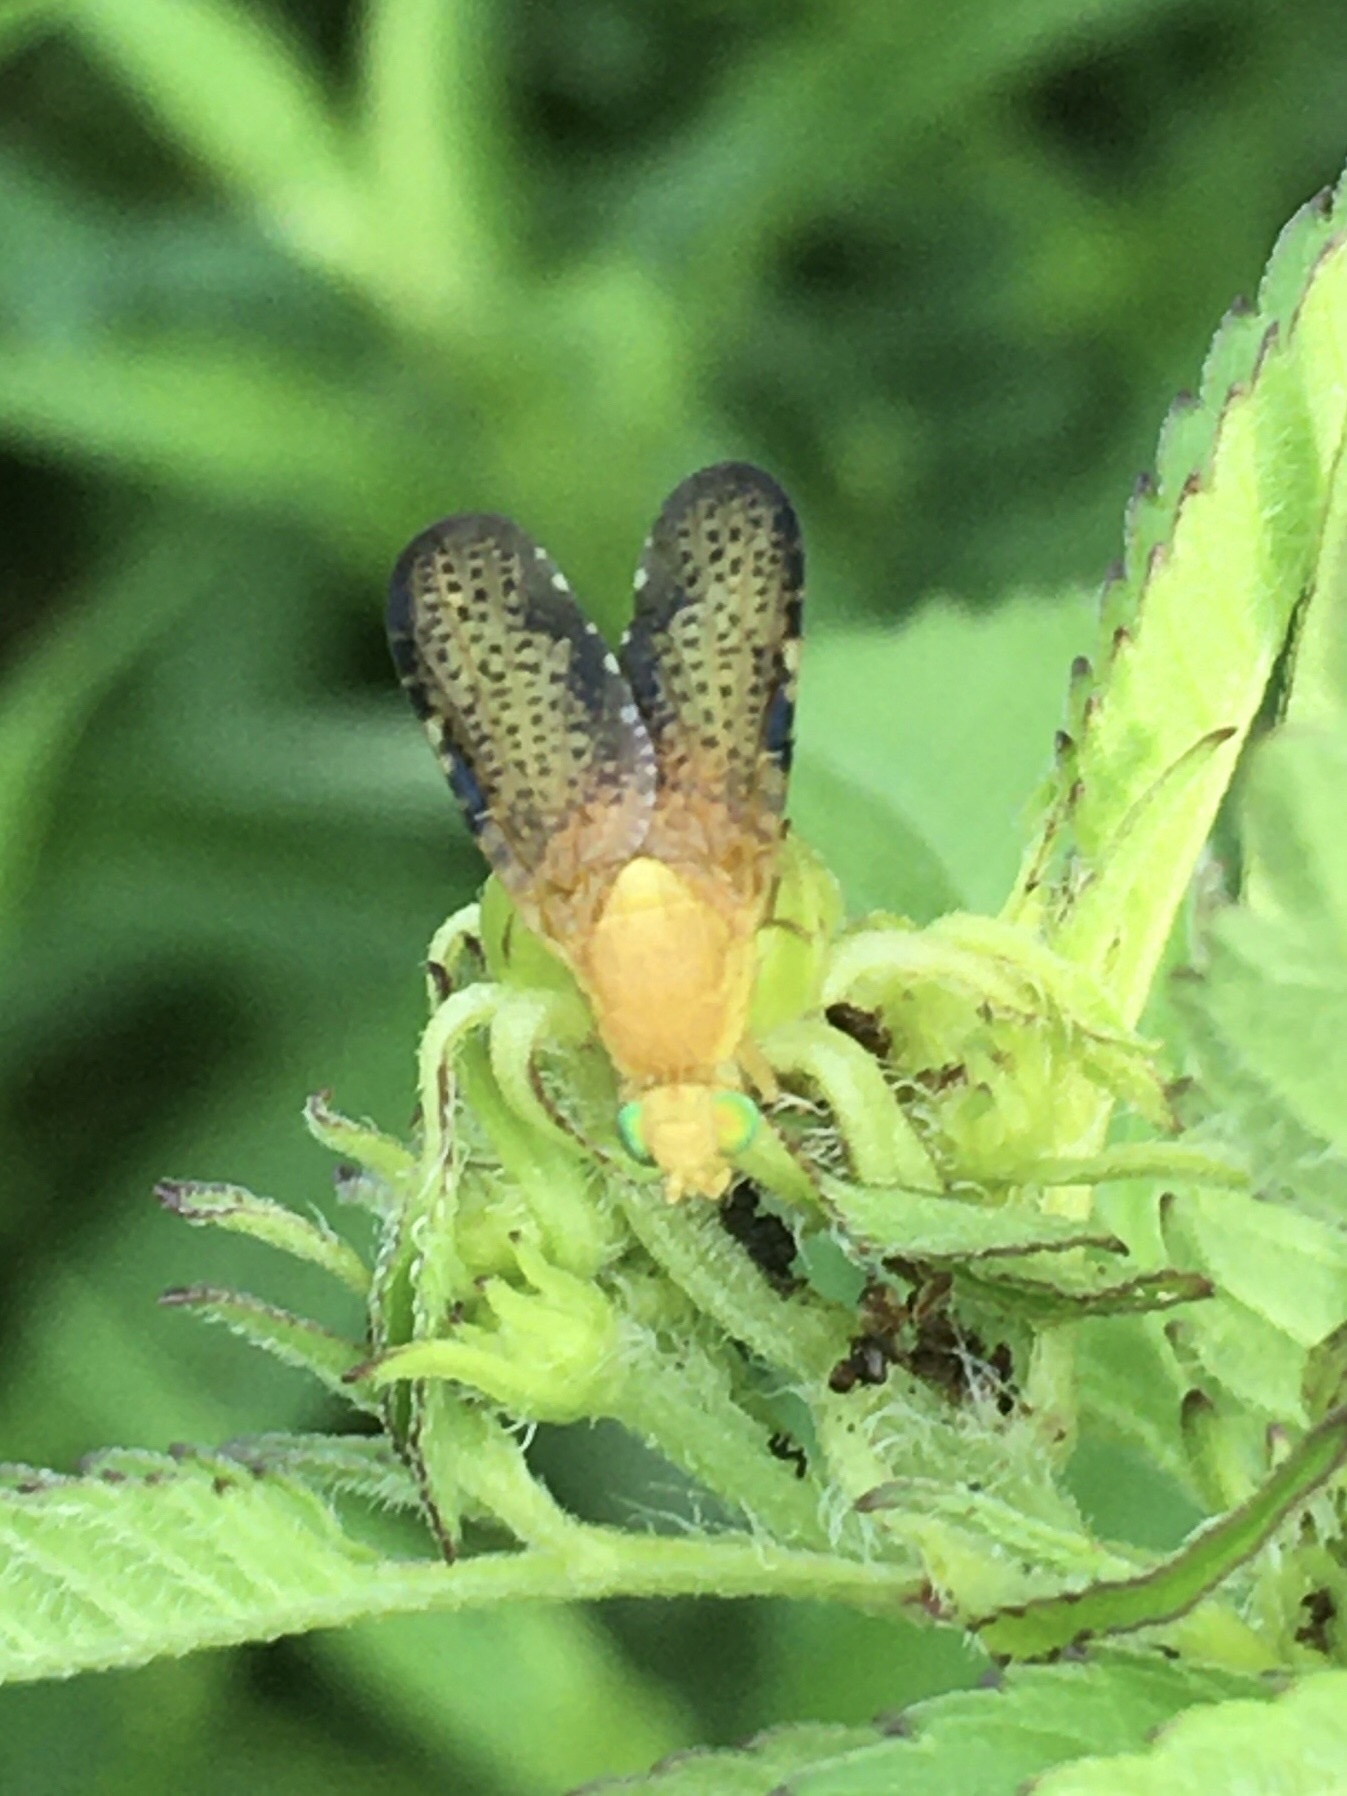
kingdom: Animalia
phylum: Arthropoda
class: Insecta
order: Diptera
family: Tephritidae
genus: Icterica
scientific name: Icterica seriata
